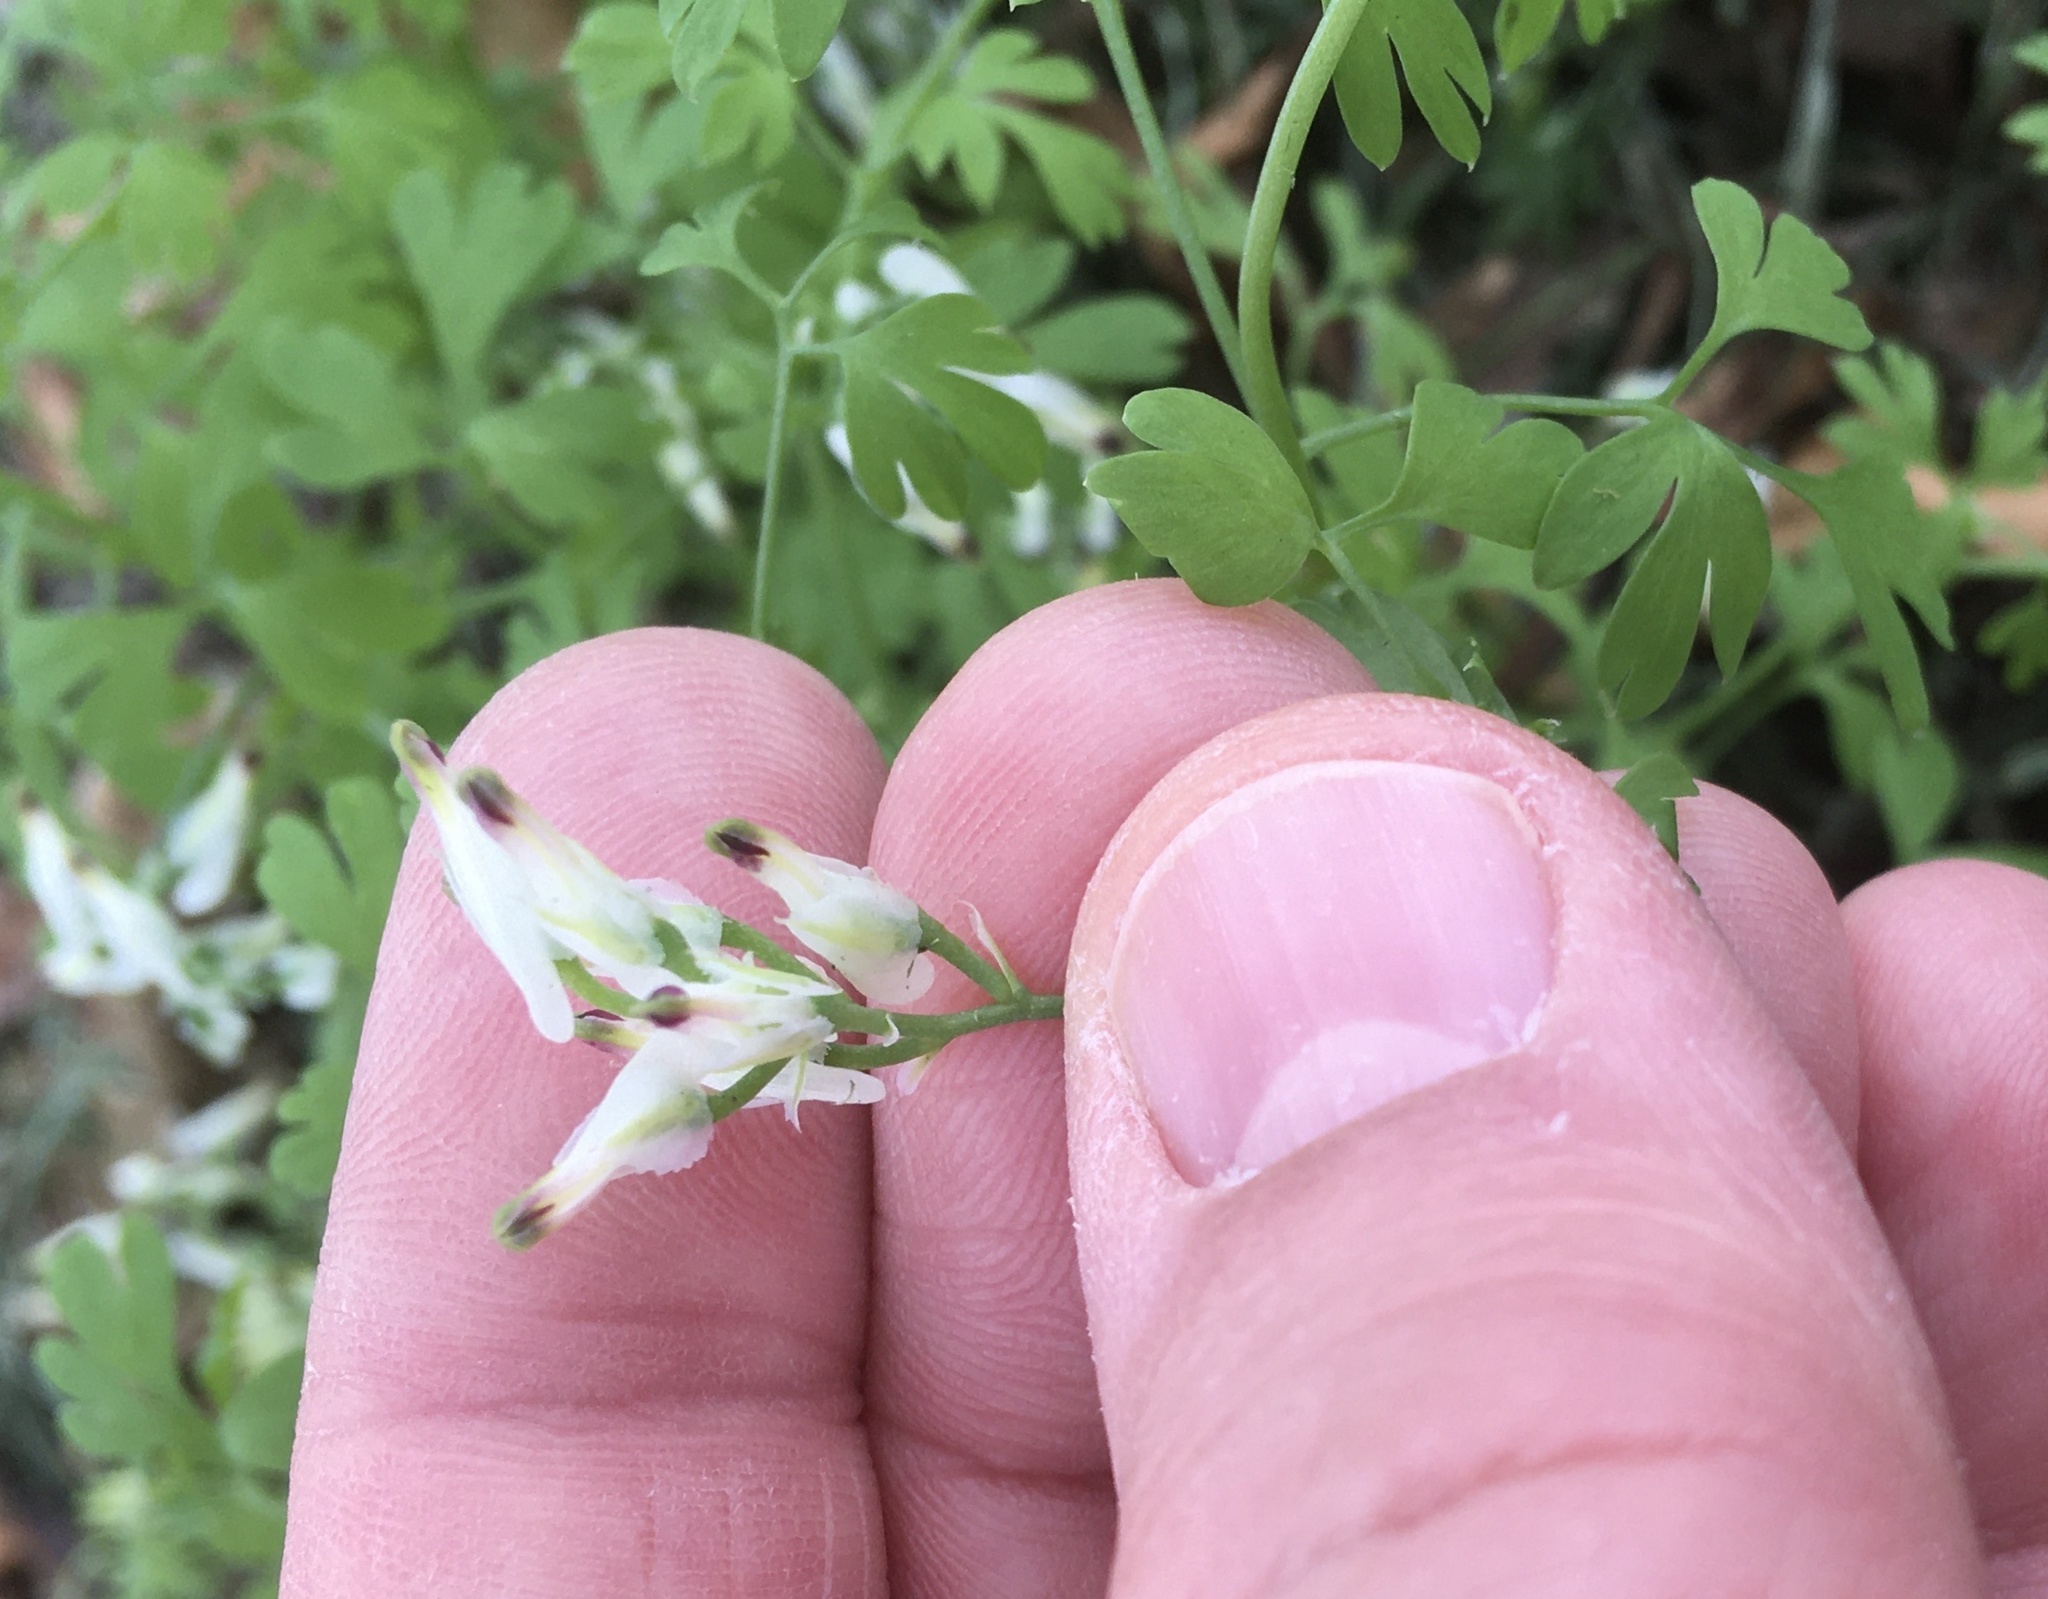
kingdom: Plantae
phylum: Tracheophyta
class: Magnoliopsida
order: Ranunculales
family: Papaveraceae
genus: Fumaria
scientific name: Fumaria capreolata
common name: White ramping-fumitory
